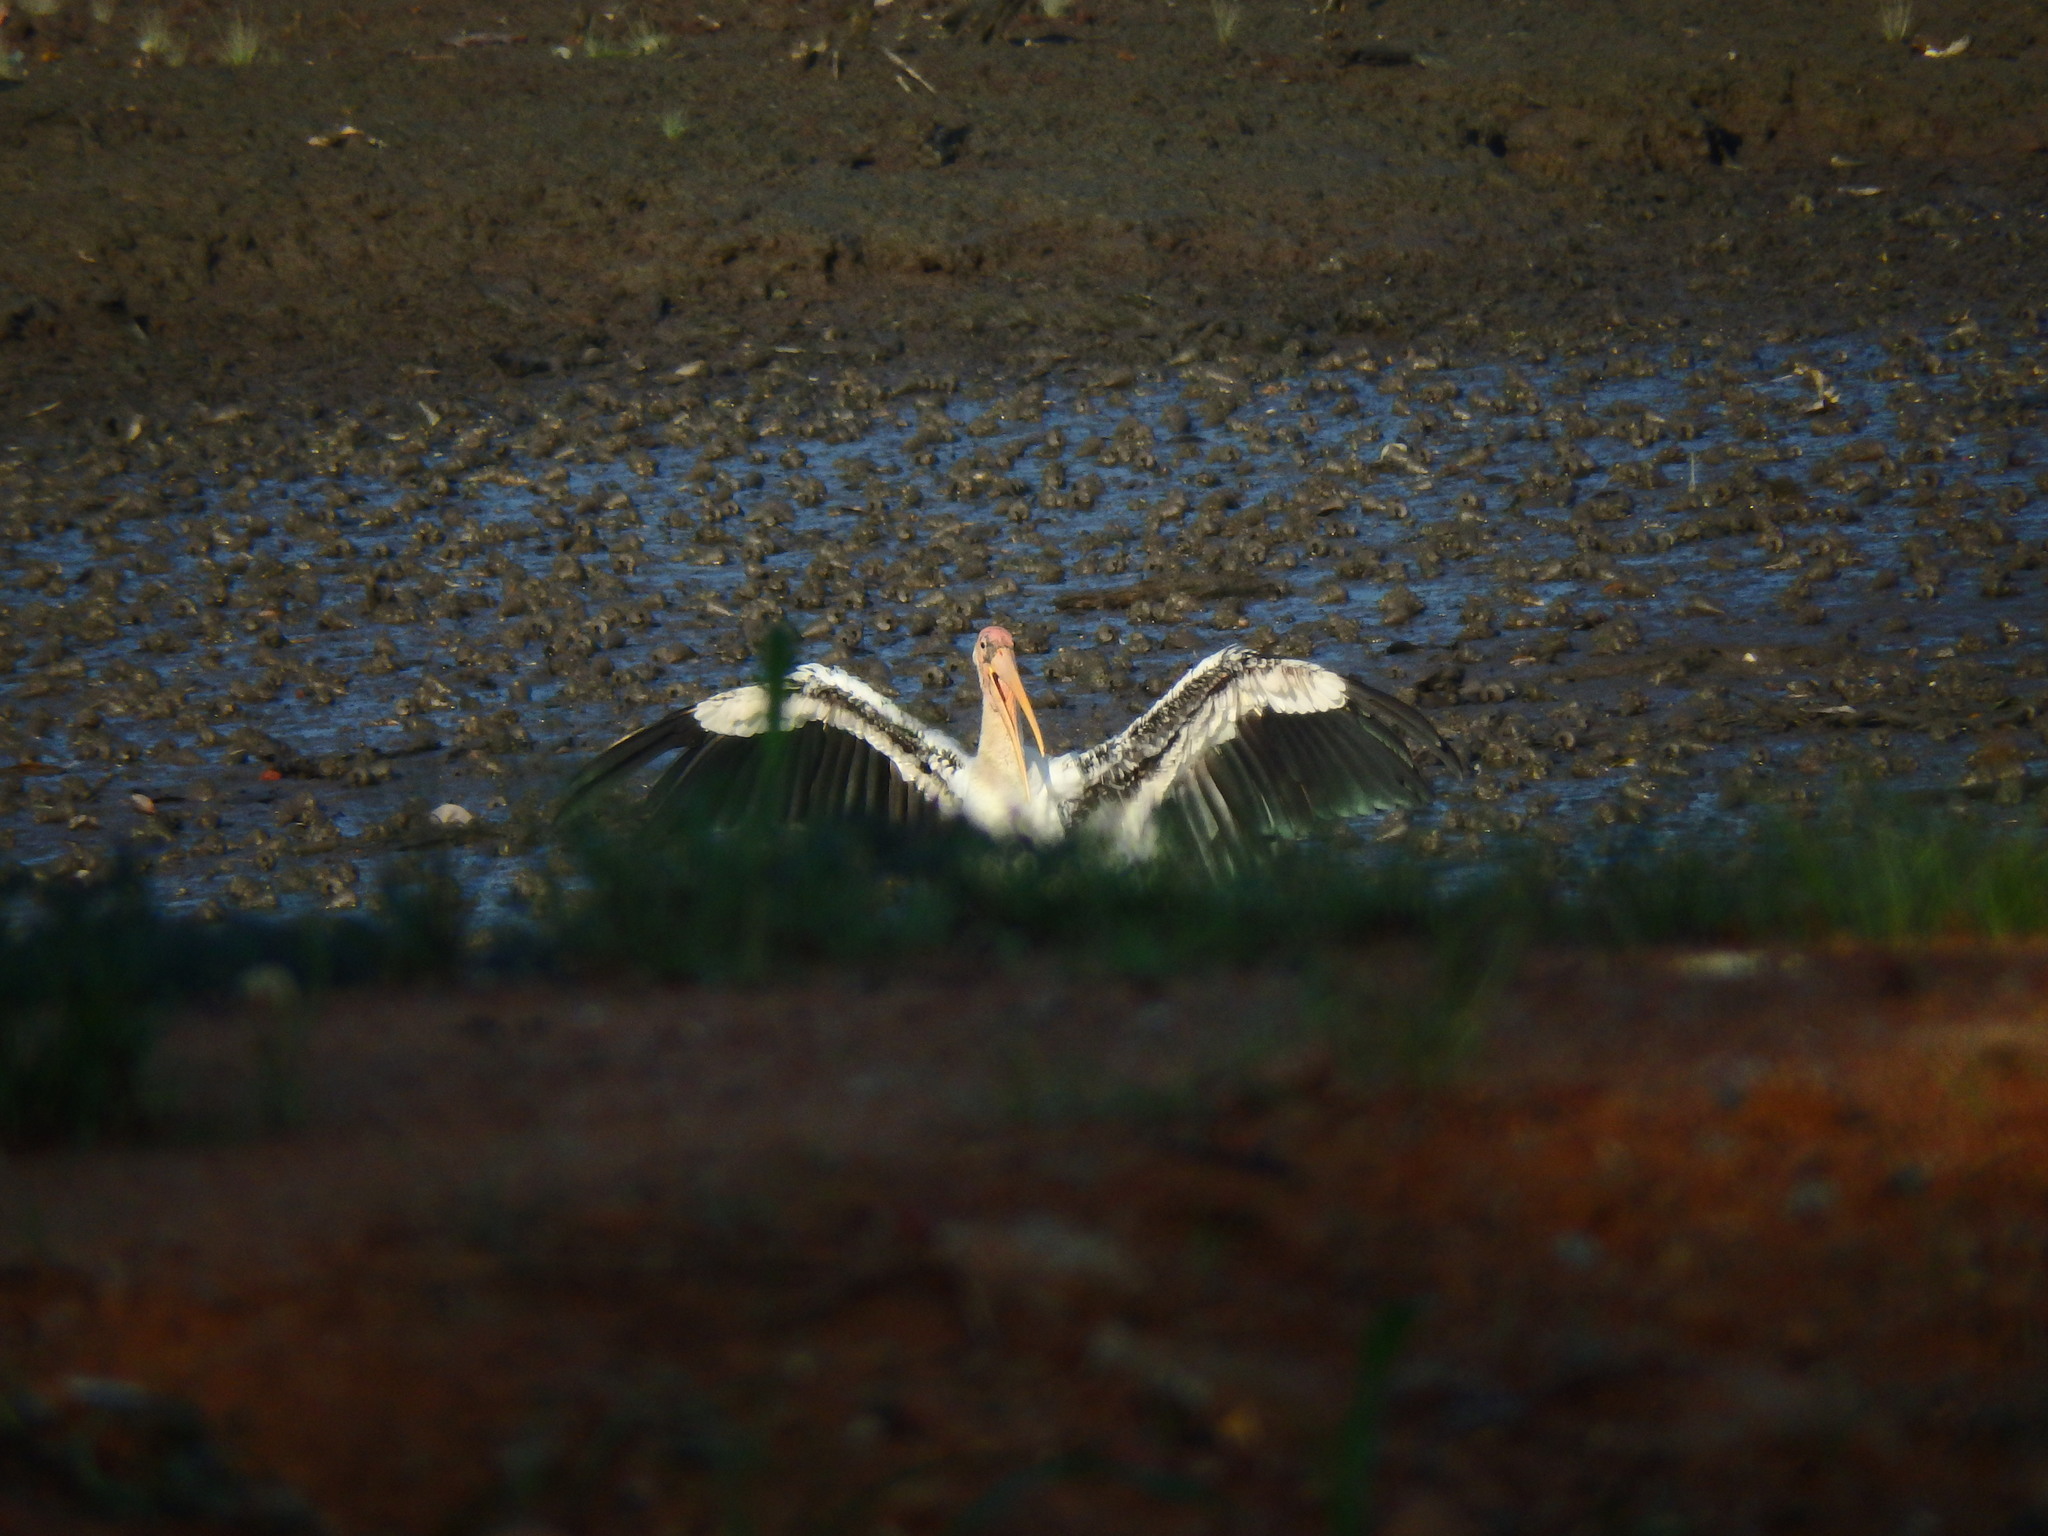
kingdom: Animalia
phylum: Chordata
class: Aves
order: Ciconiiformes
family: Ciconiidae
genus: Mycteria
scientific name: Mycteria
